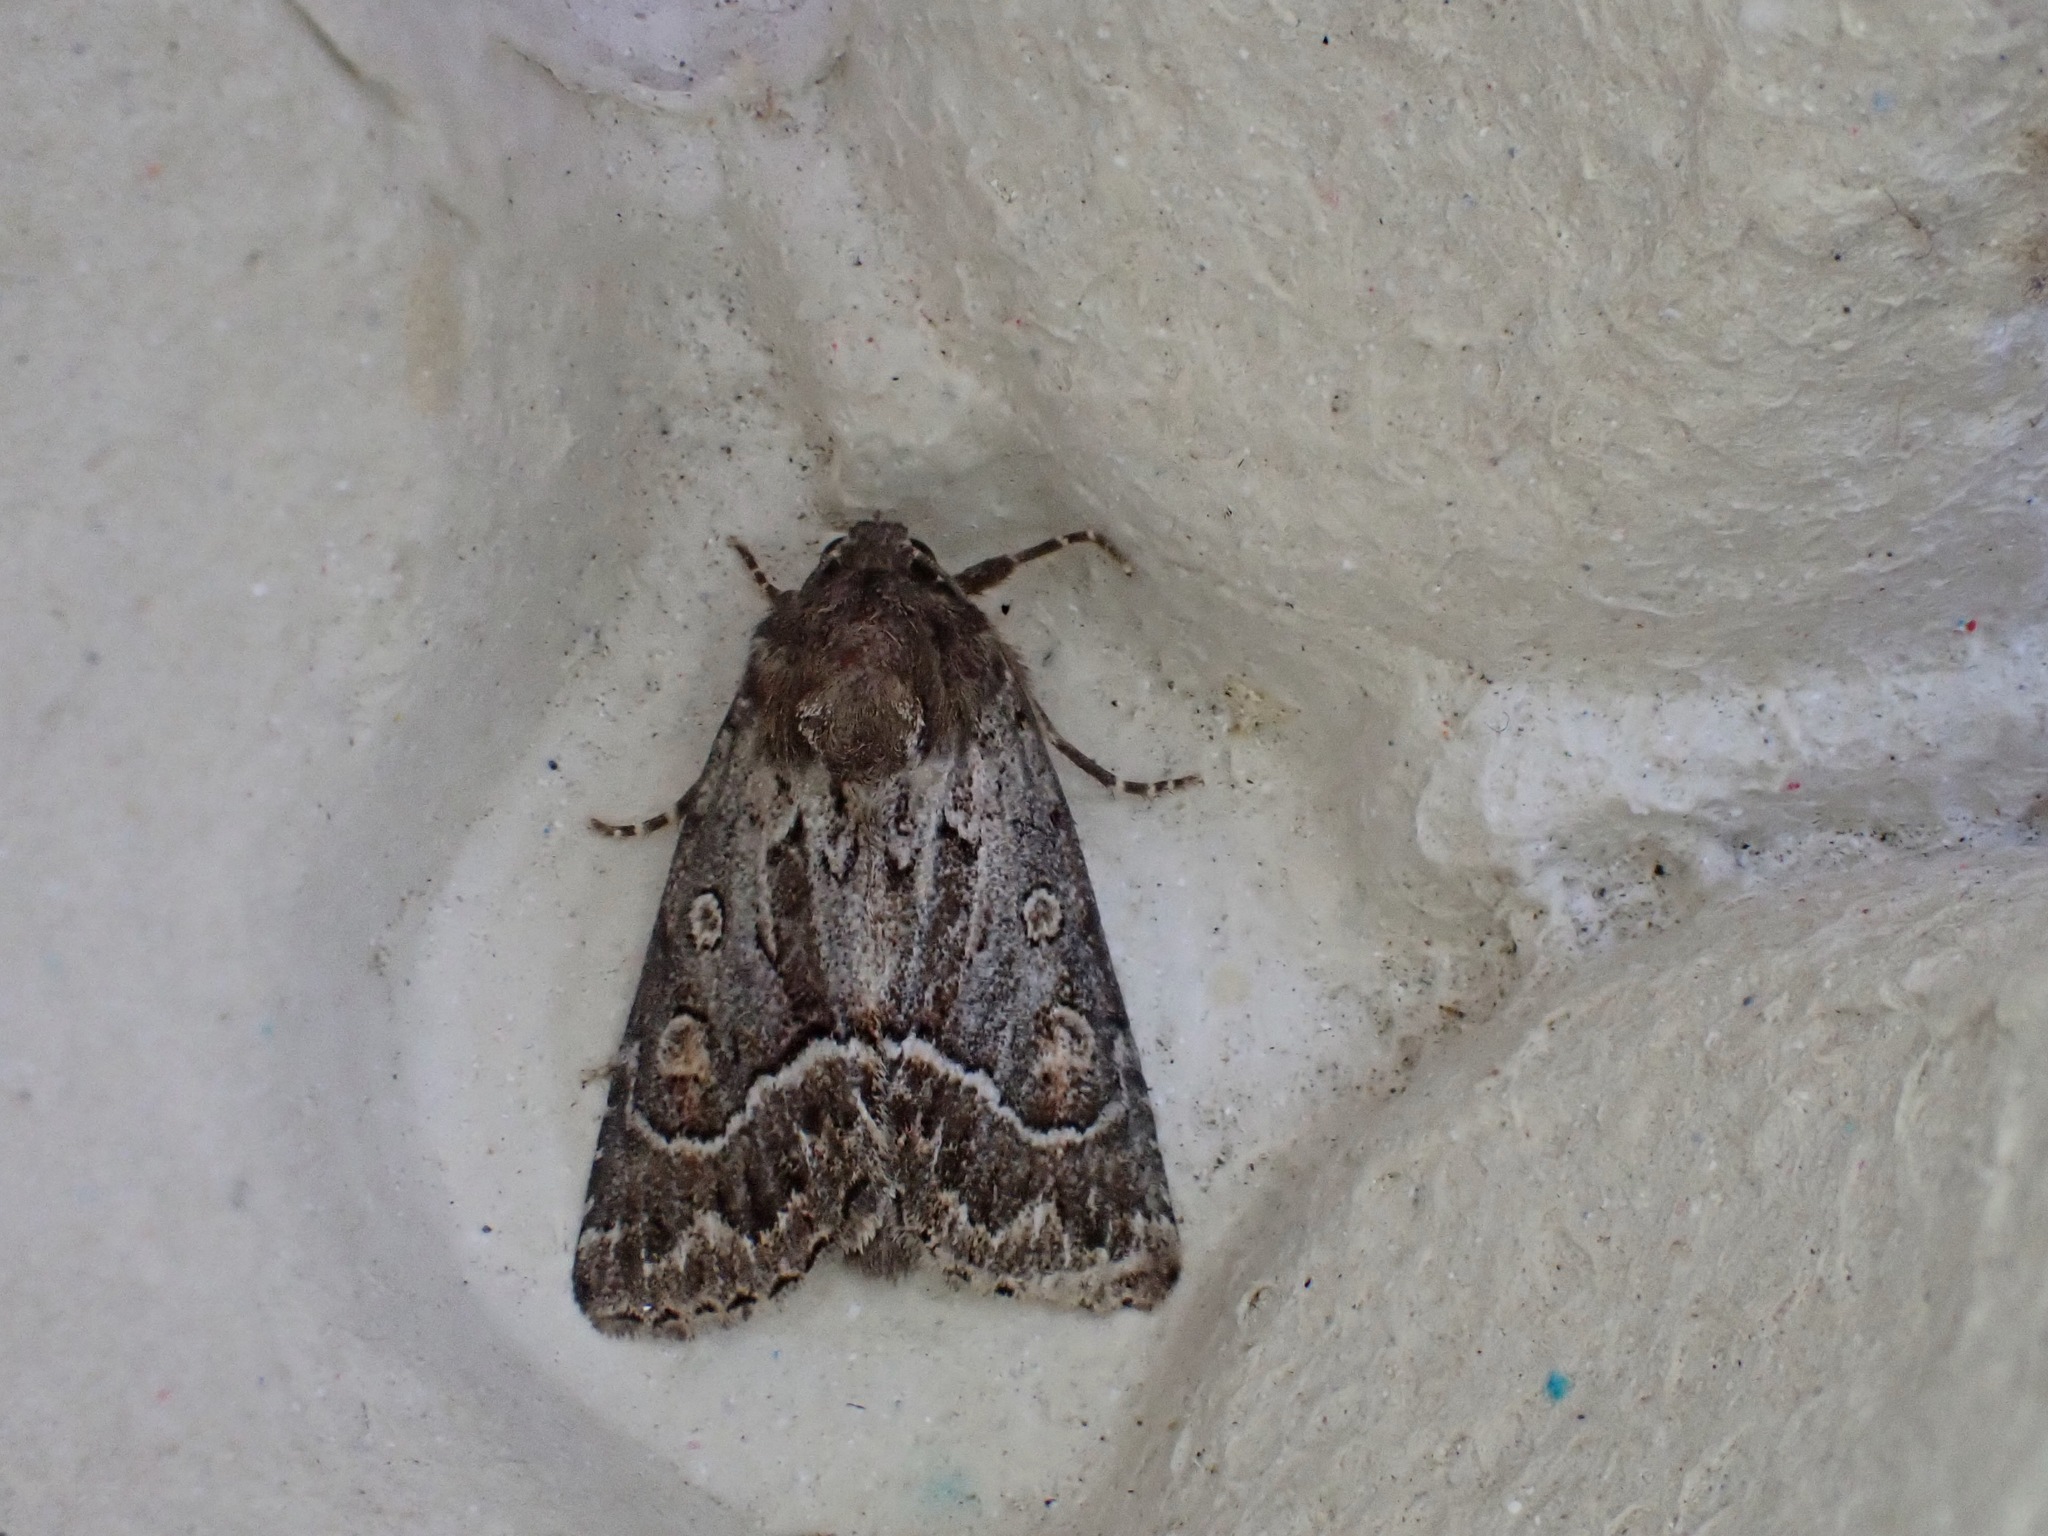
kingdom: Animalia
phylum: Arthropoda
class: Insecta
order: Lepidoptera
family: Noctuidae
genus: Thalpophila
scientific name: Thalpophila matura
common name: Straw underwing
